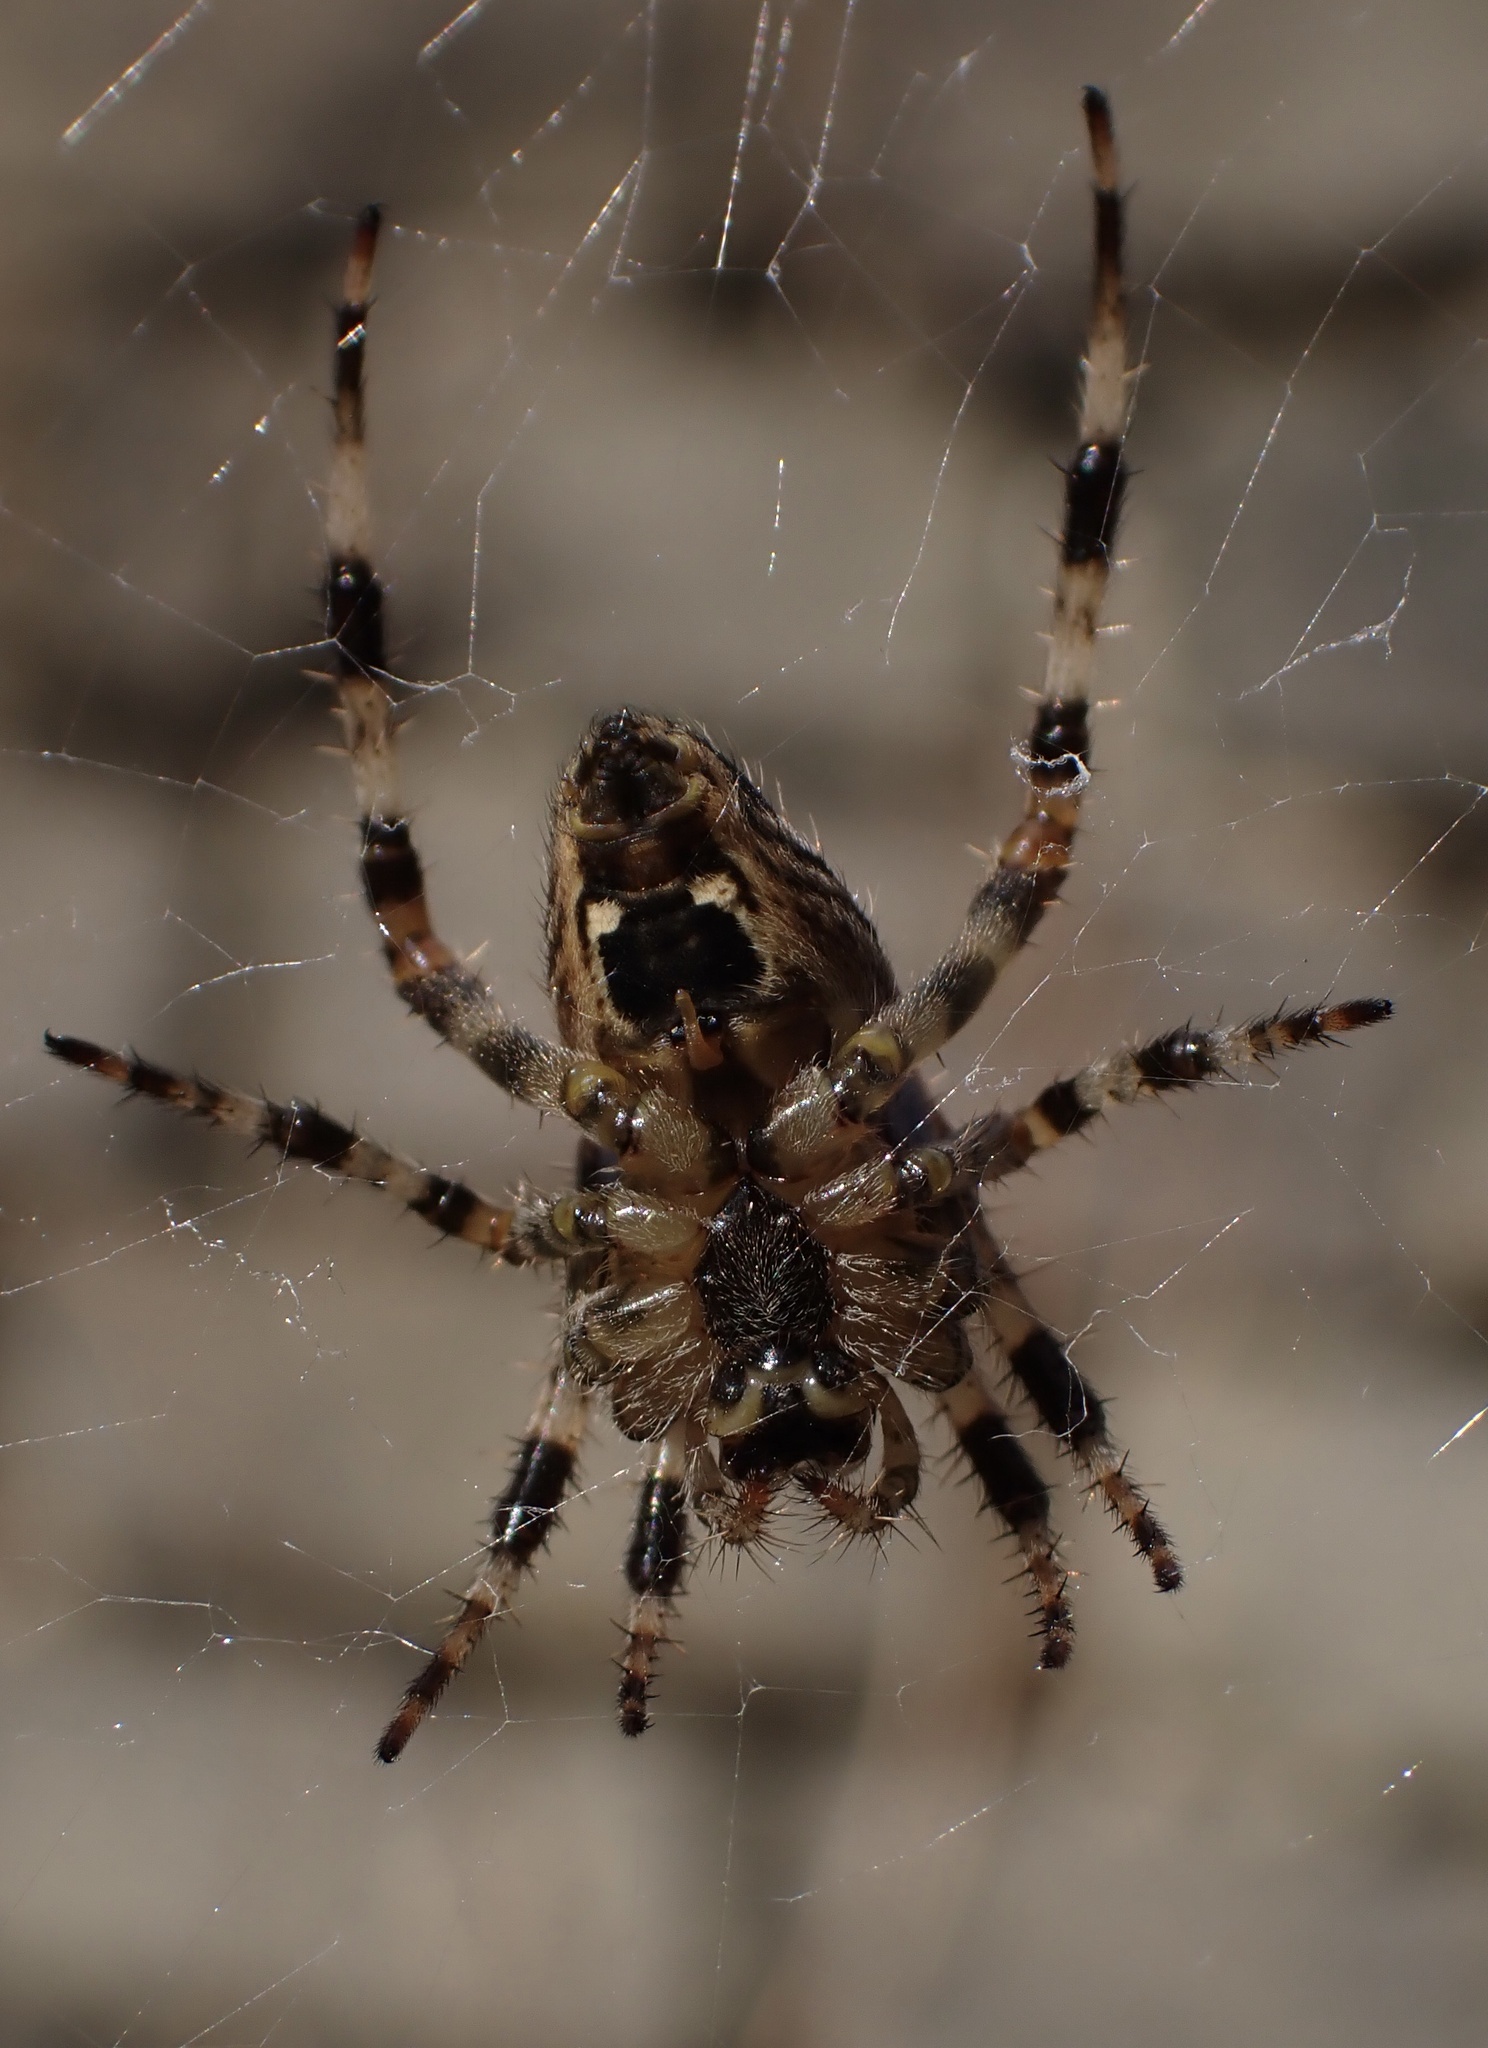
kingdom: Animalia
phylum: Arthropoda
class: Arachnida
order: Araneae
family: Araneidae
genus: Araneus
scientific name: Araneus diadematus
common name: Cross orbweaver
